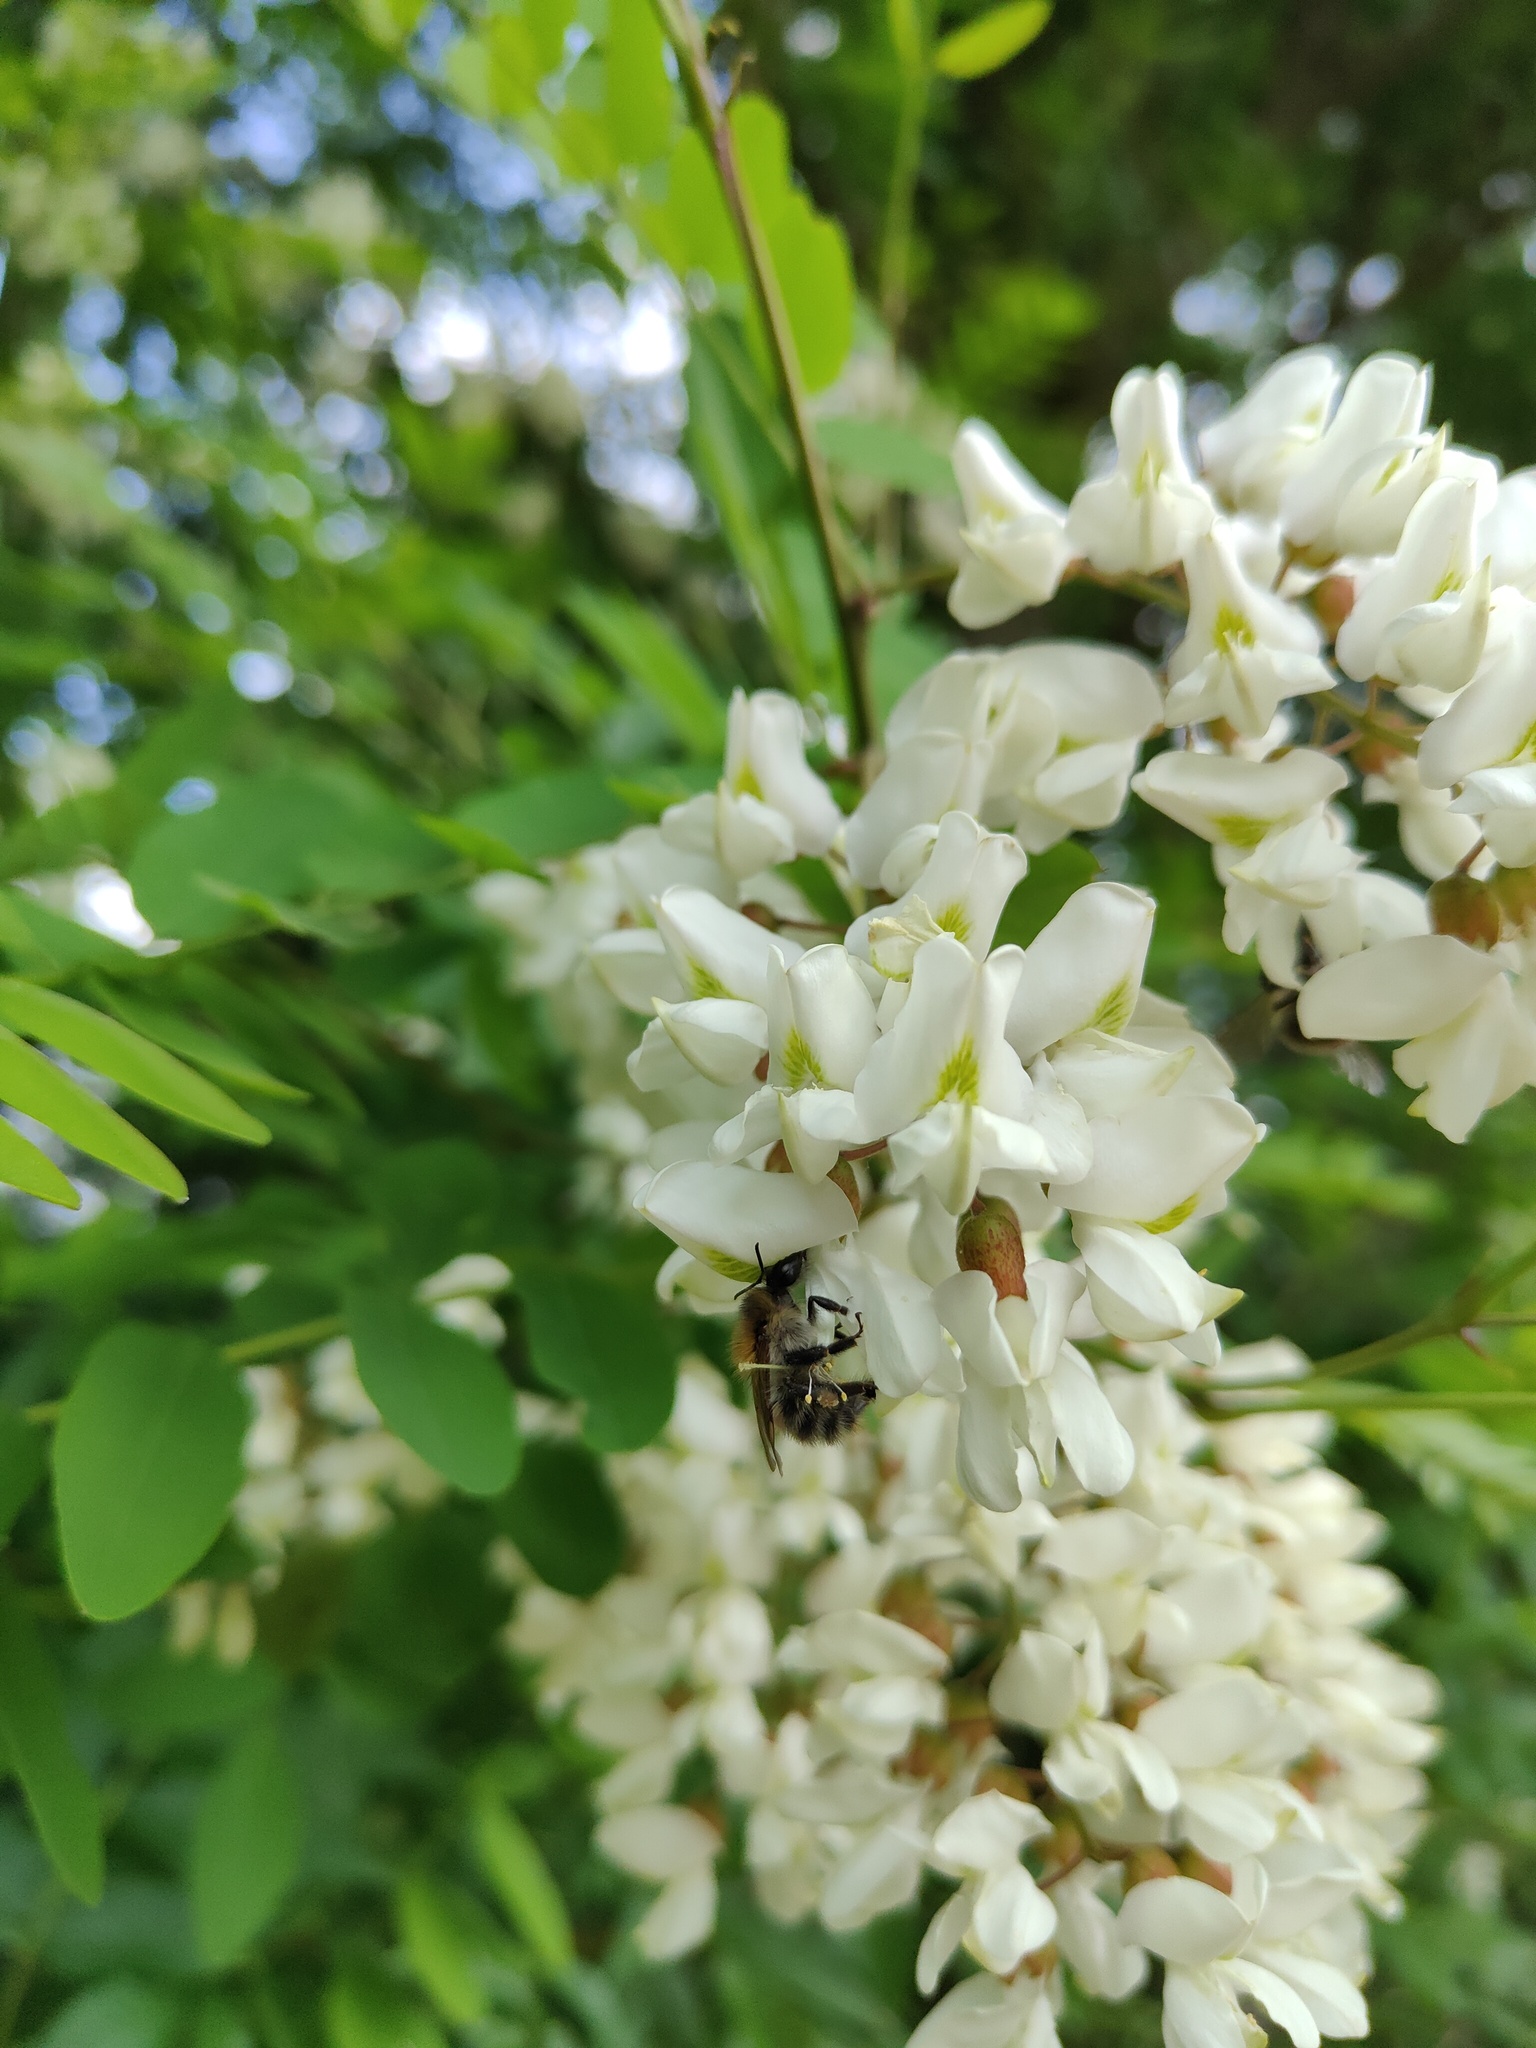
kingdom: Animalia
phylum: Arthropoda
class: Insecta
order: Hymenoptera
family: Apidae
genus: Bombus
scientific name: Bombus pascuorum
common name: Common carder bee
